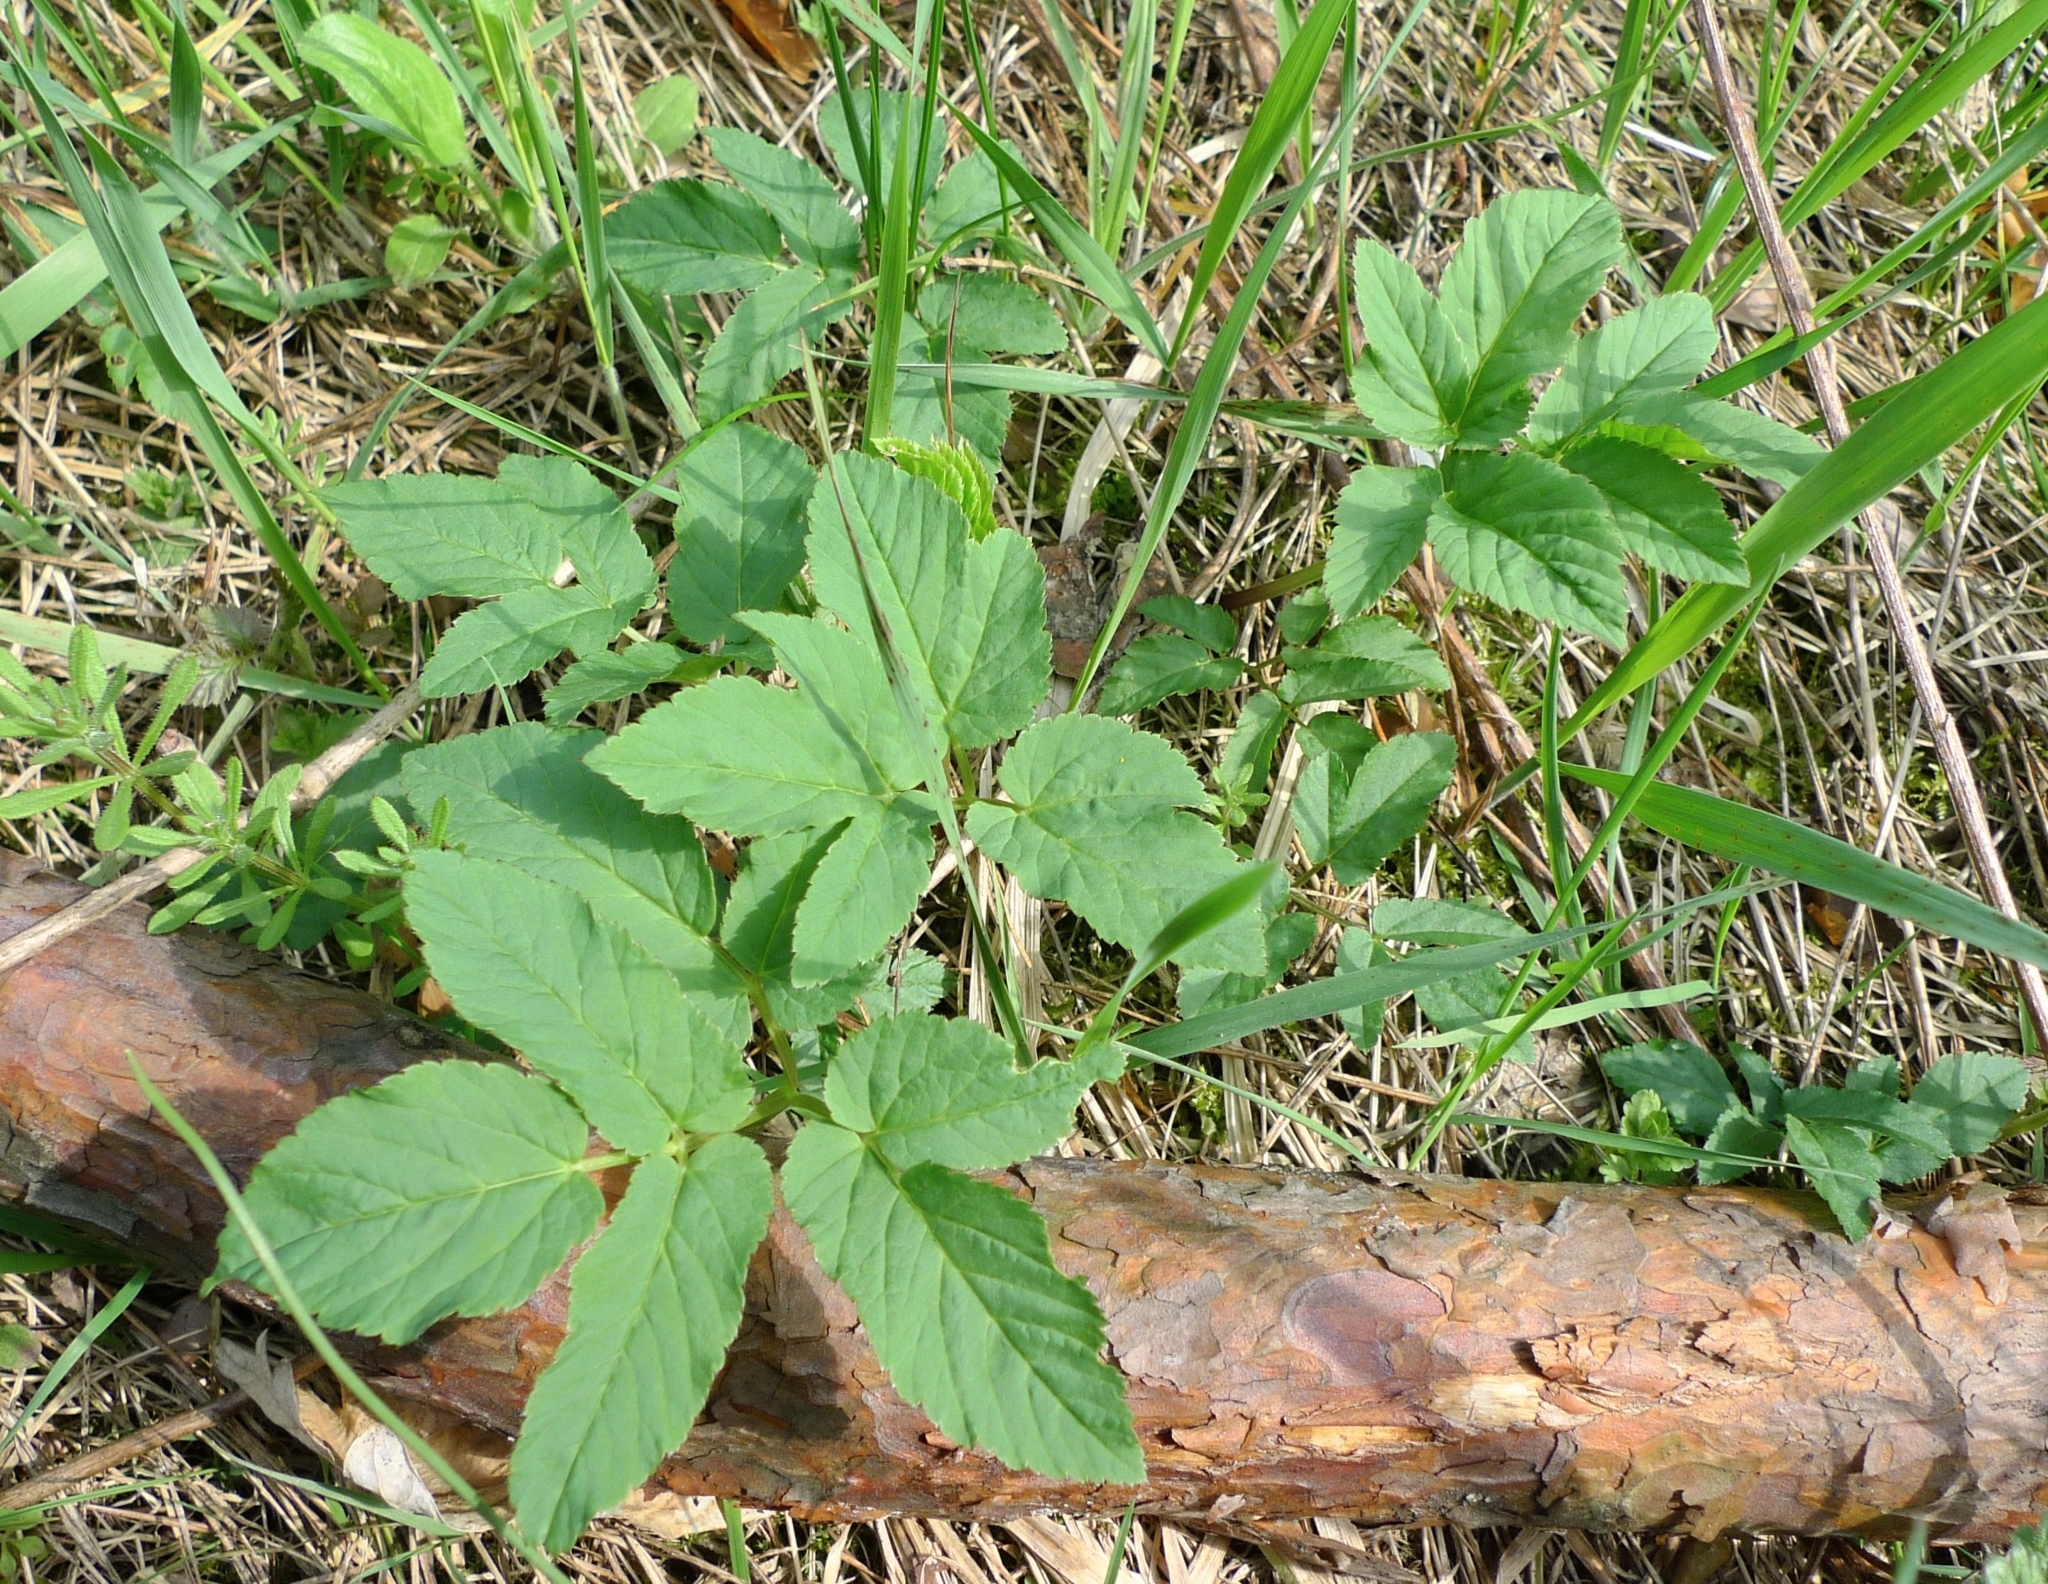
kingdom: Plantae
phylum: Tracheophyta
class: Magnoliopsida
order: Apiales
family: Apiaceae
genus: Aegopodium
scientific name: Aegopodium podagraria
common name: Ground-elder
